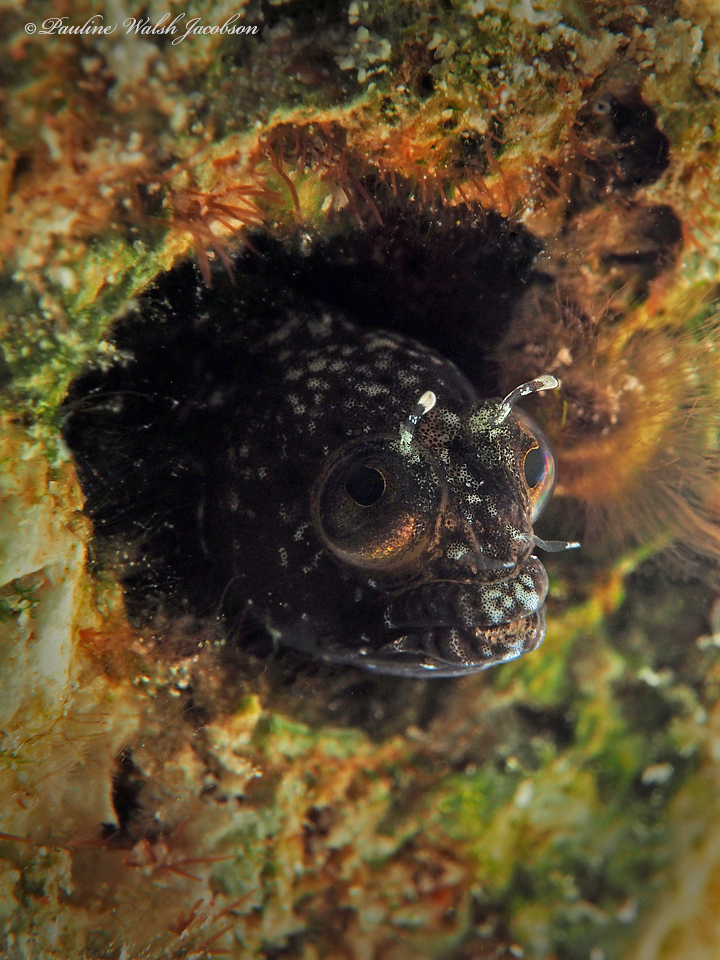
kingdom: Animalia
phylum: Chordata
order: Perciformes
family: Chaenopsidae
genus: Emblemaria
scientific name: Emblemaria pandionis
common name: Sailfin blenny
